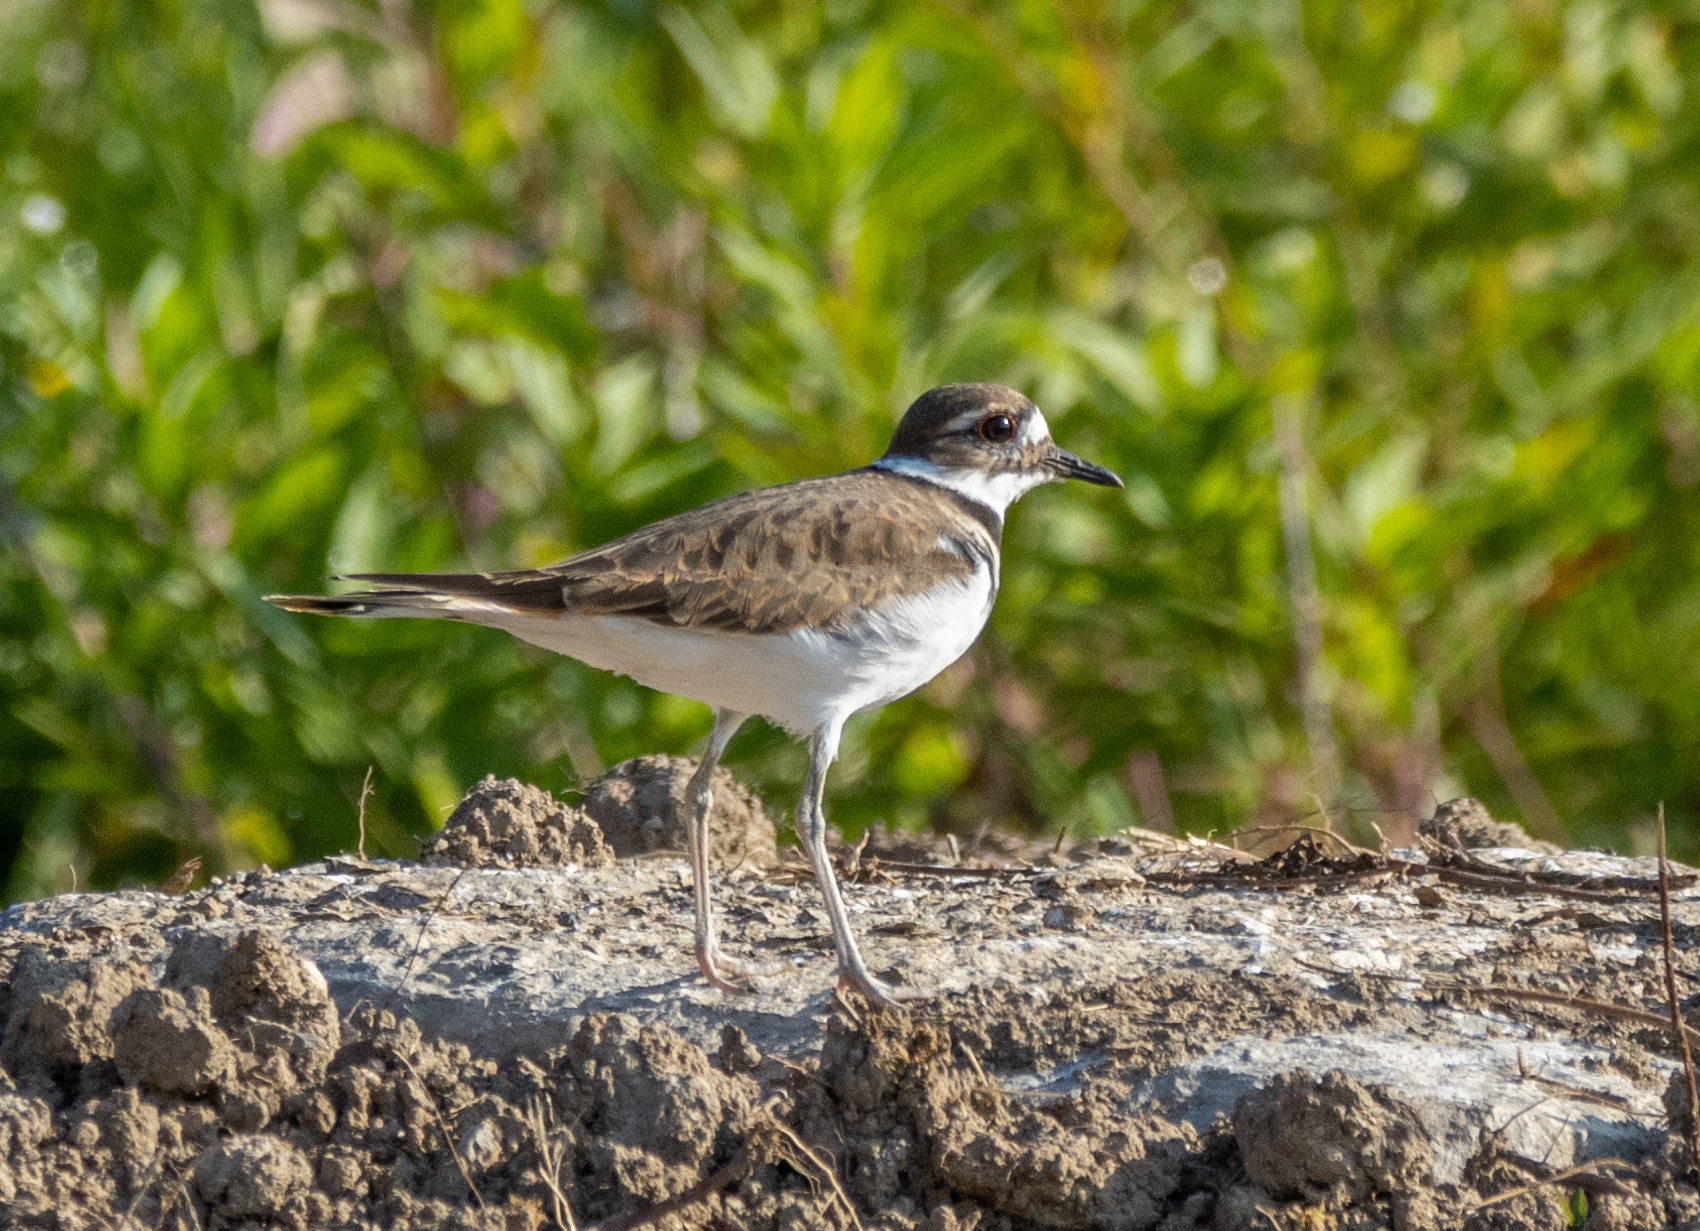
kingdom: Animalia
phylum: Chordata
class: Aves
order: Charadriiformes
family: Charadriidae
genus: Charadrius
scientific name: Charadrius vociferus
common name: Killdeer
